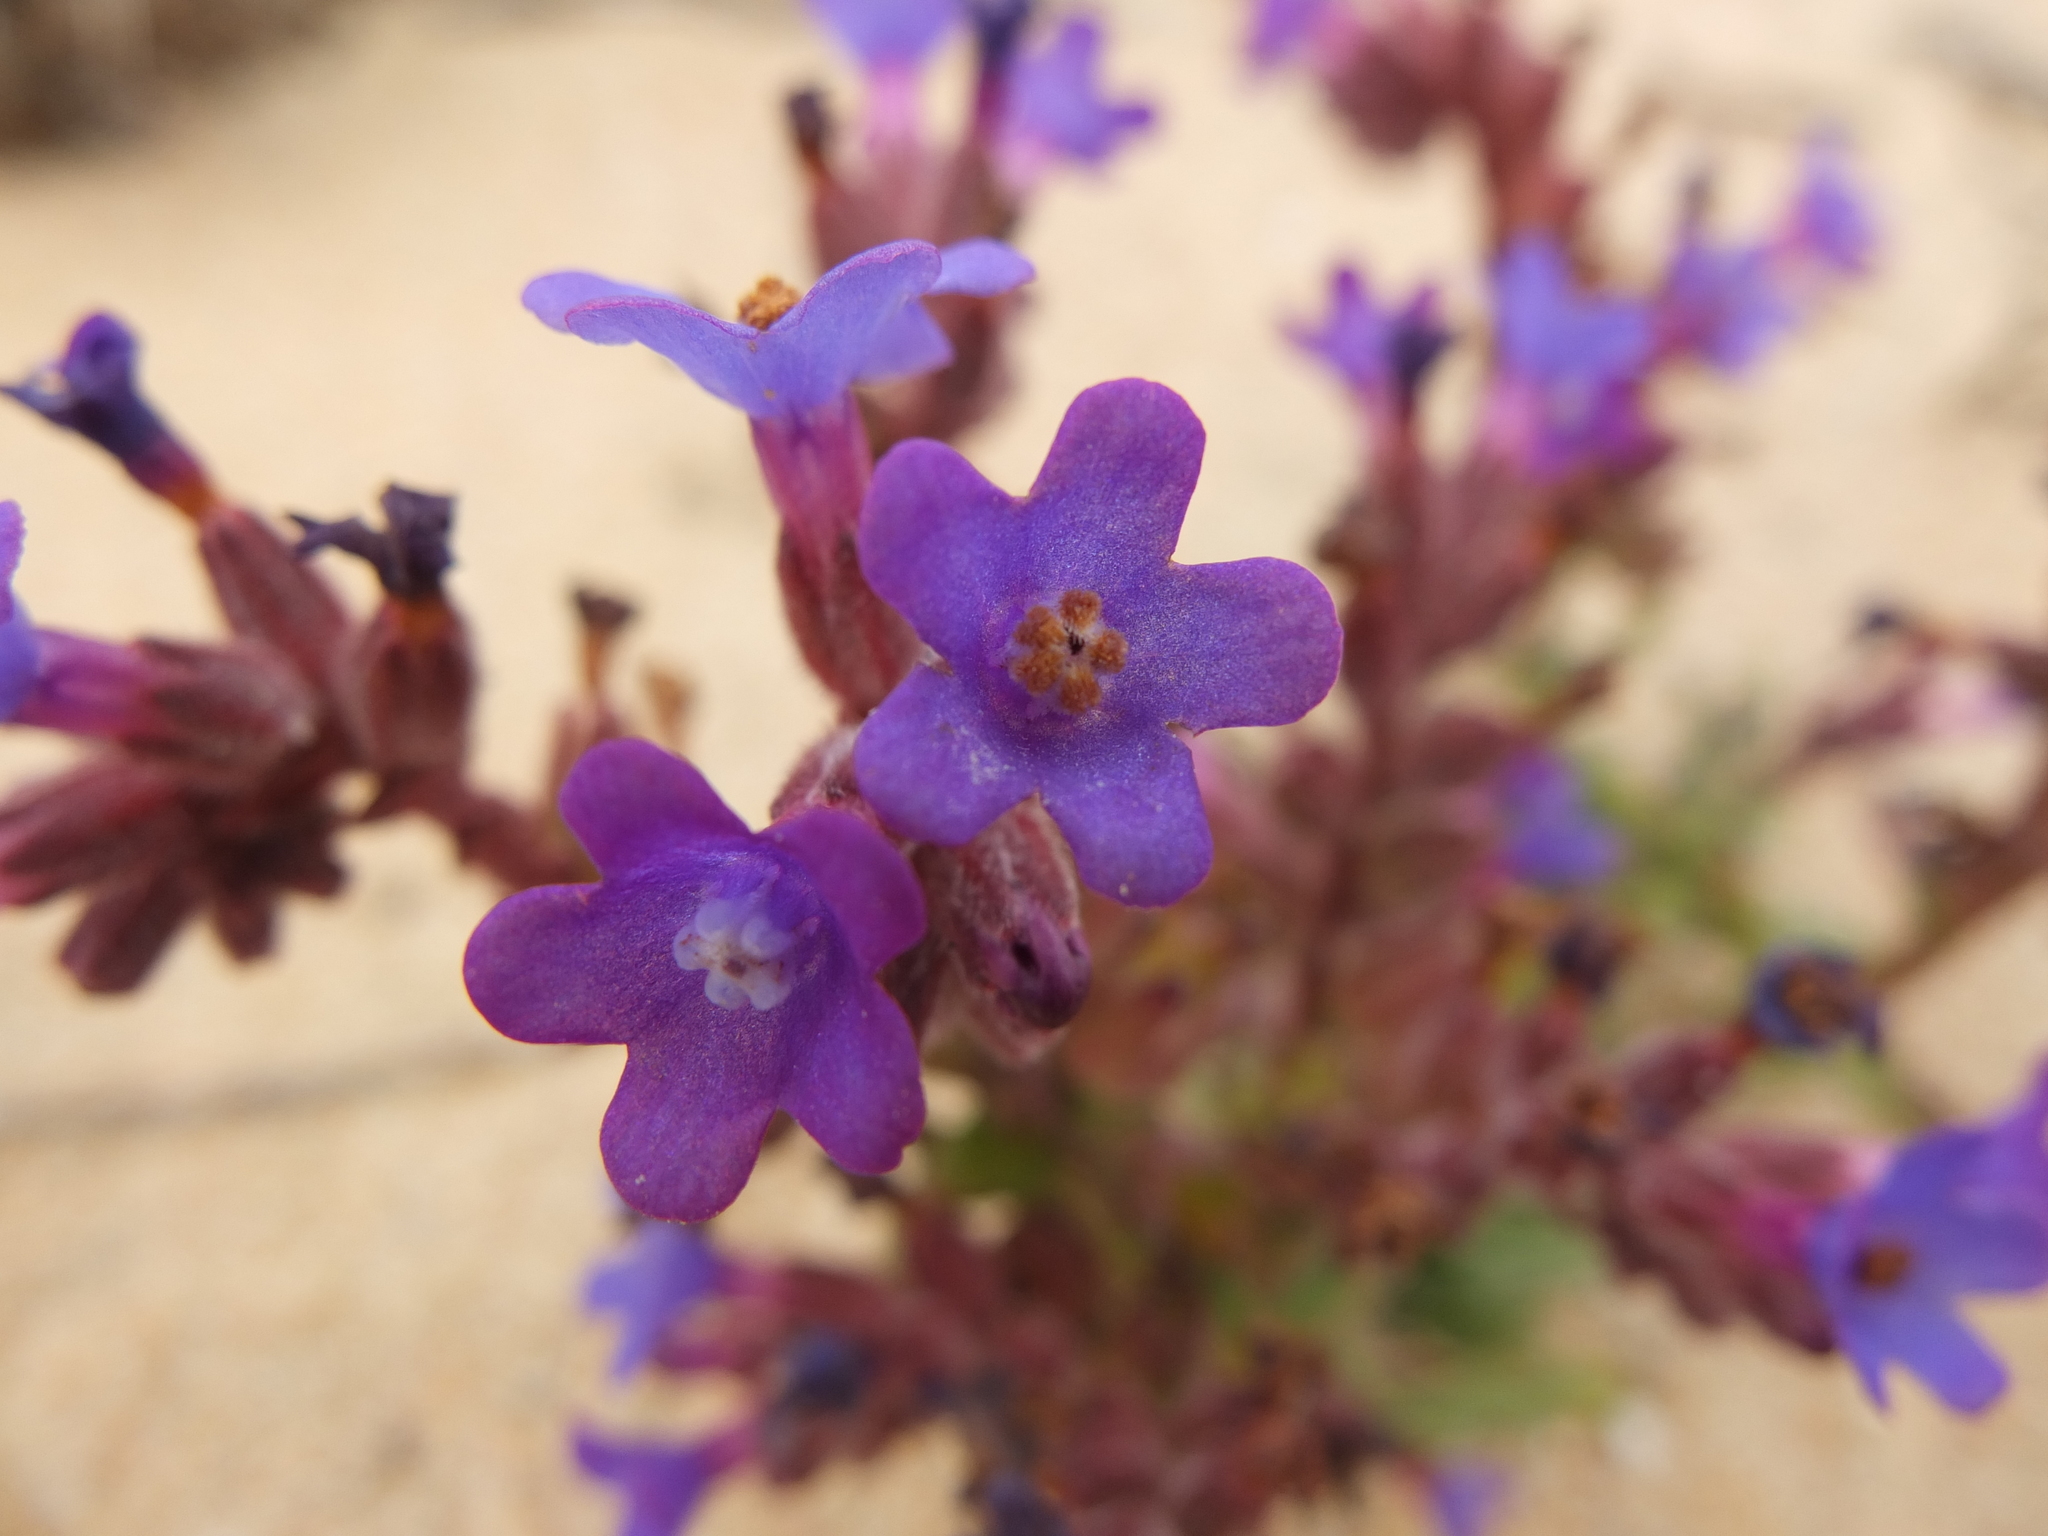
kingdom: Plantae
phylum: Tracheophyta
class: Magnoliopsida
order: Boraginales
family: Boraginaceae
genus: Anchusa
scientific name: Anchusa calcarea
